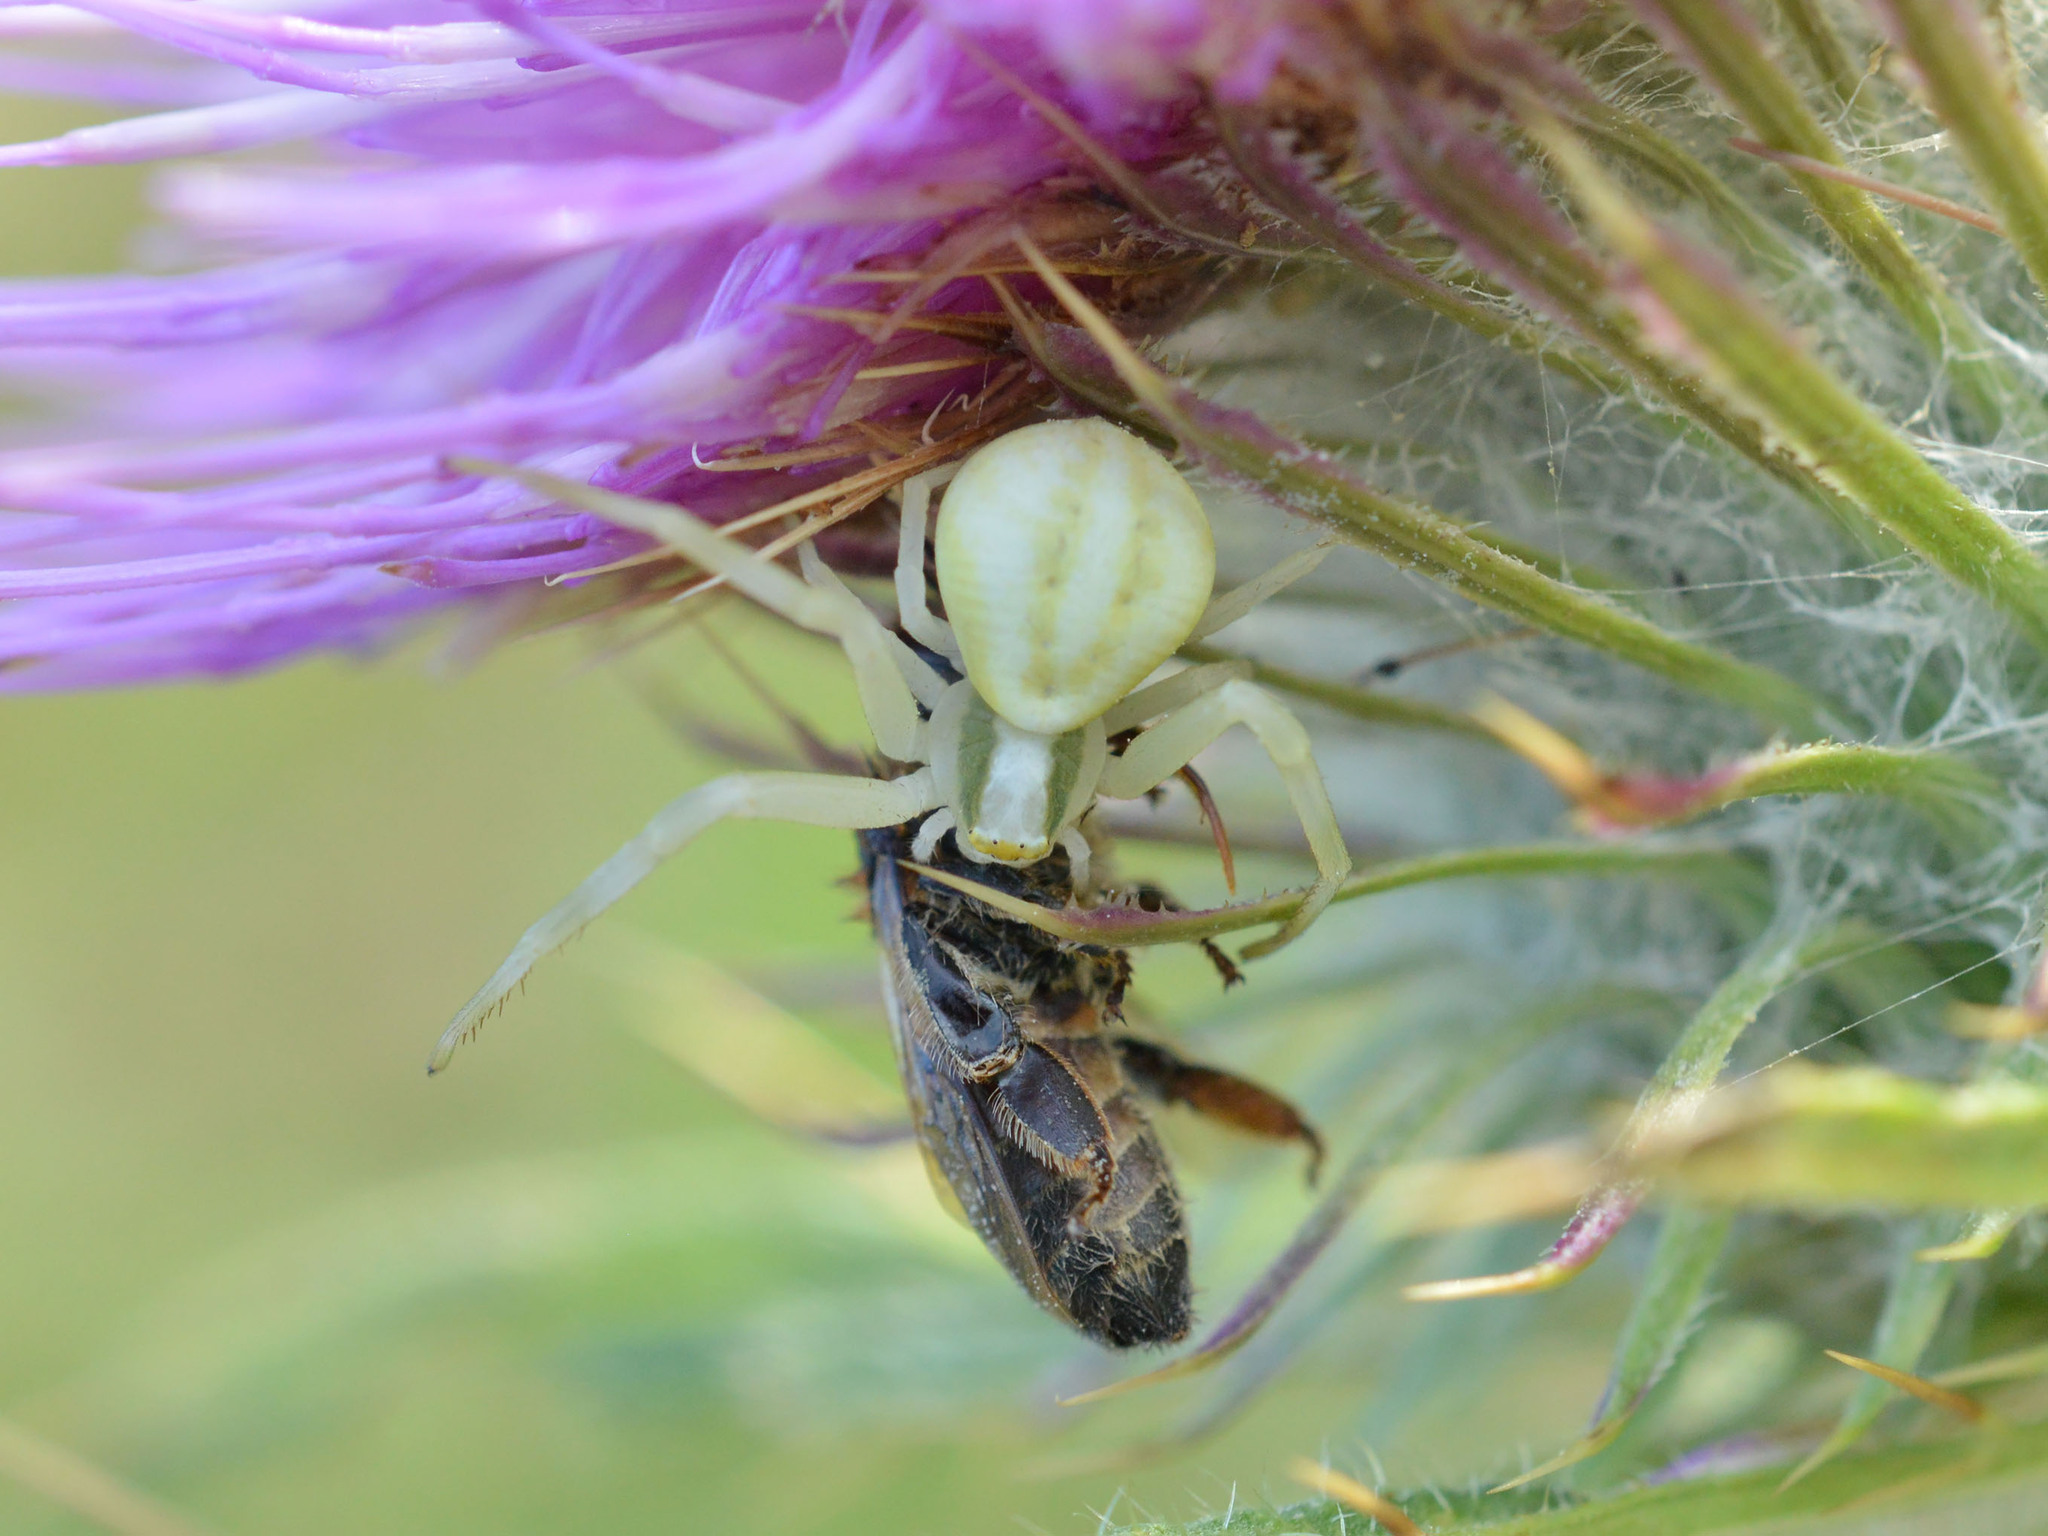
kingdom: Animalia
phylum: Arthropoda
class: Insecta
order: Hymenoptera
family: Apidae
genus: Apis
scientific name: Apis mellifera
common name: Honey bee
